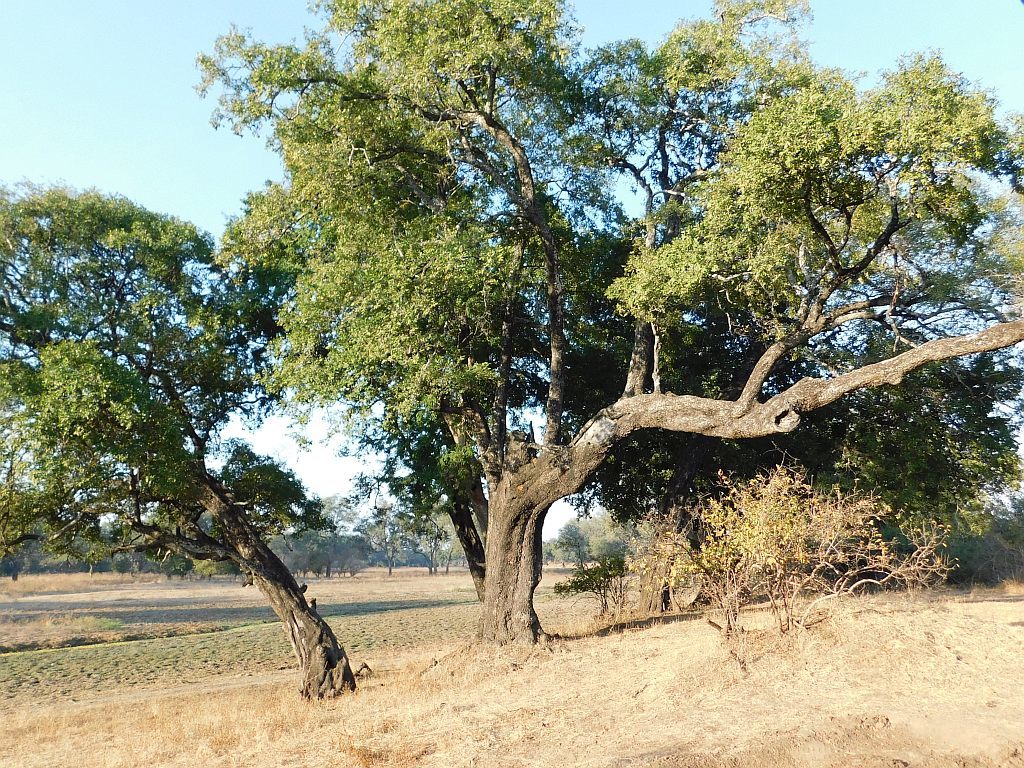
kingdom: Animalia
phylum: Chordata
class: Mammalia
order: Rodentia
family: Sciuridae
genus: Paraxerus
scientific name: Paraxerus cepapi
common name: Smith's bush squirrel
